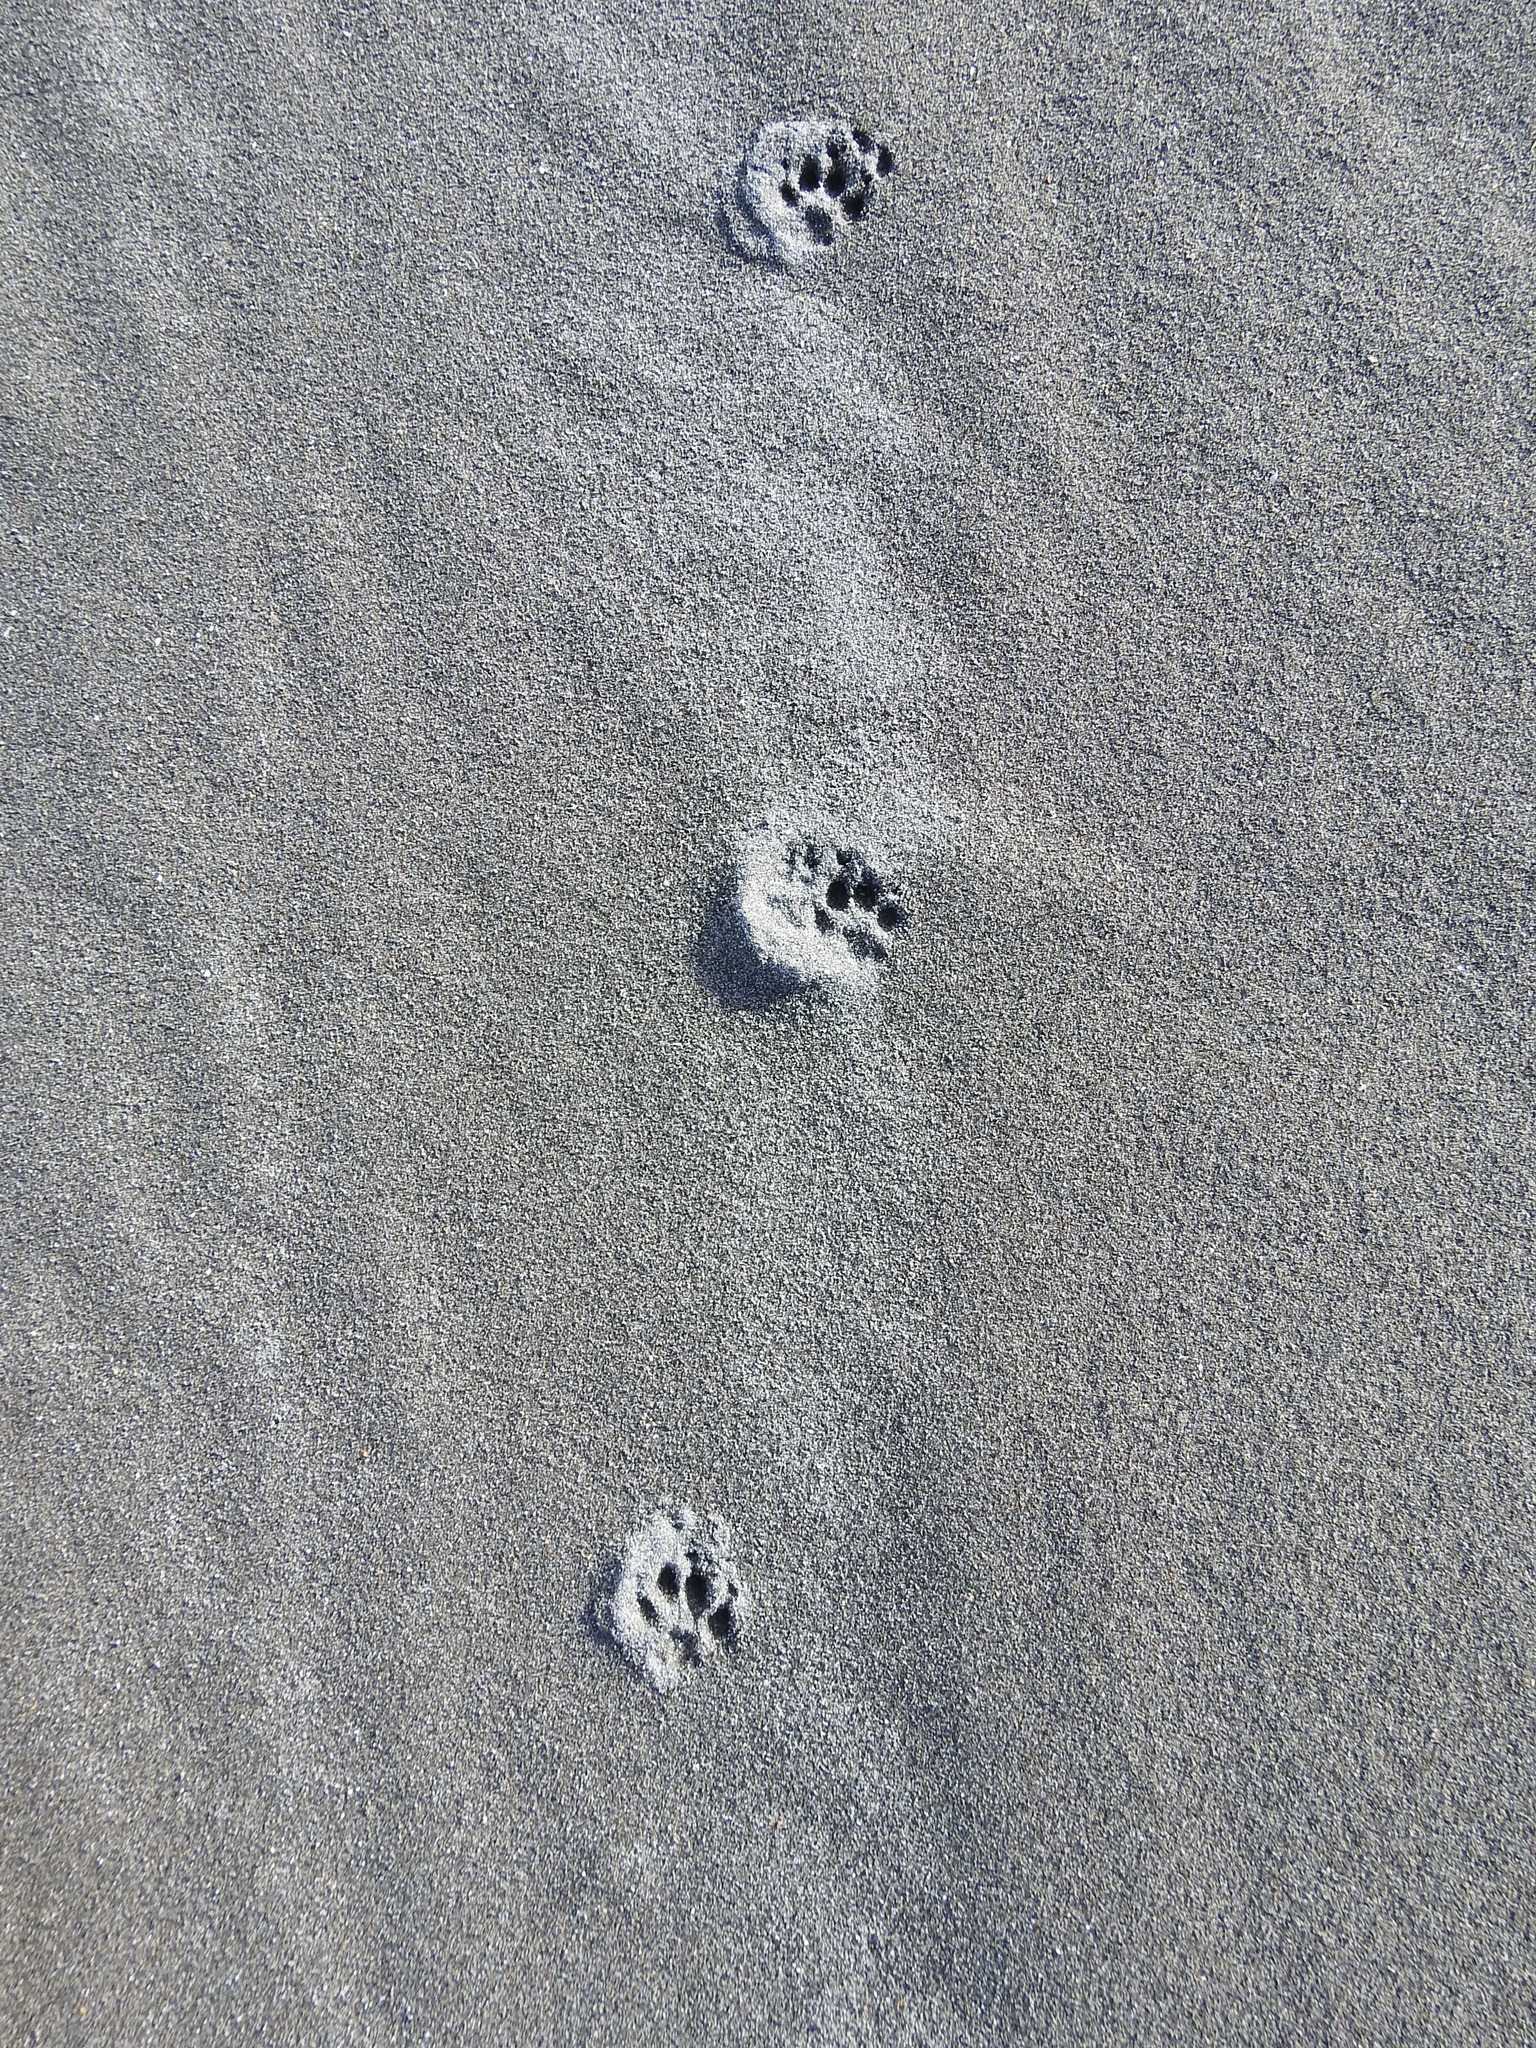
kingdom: Animalia
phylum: Chordata
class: Mammalia
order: Carnivora
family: Felidae
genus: Felis
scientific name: Felis catus
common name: Domestic cat
